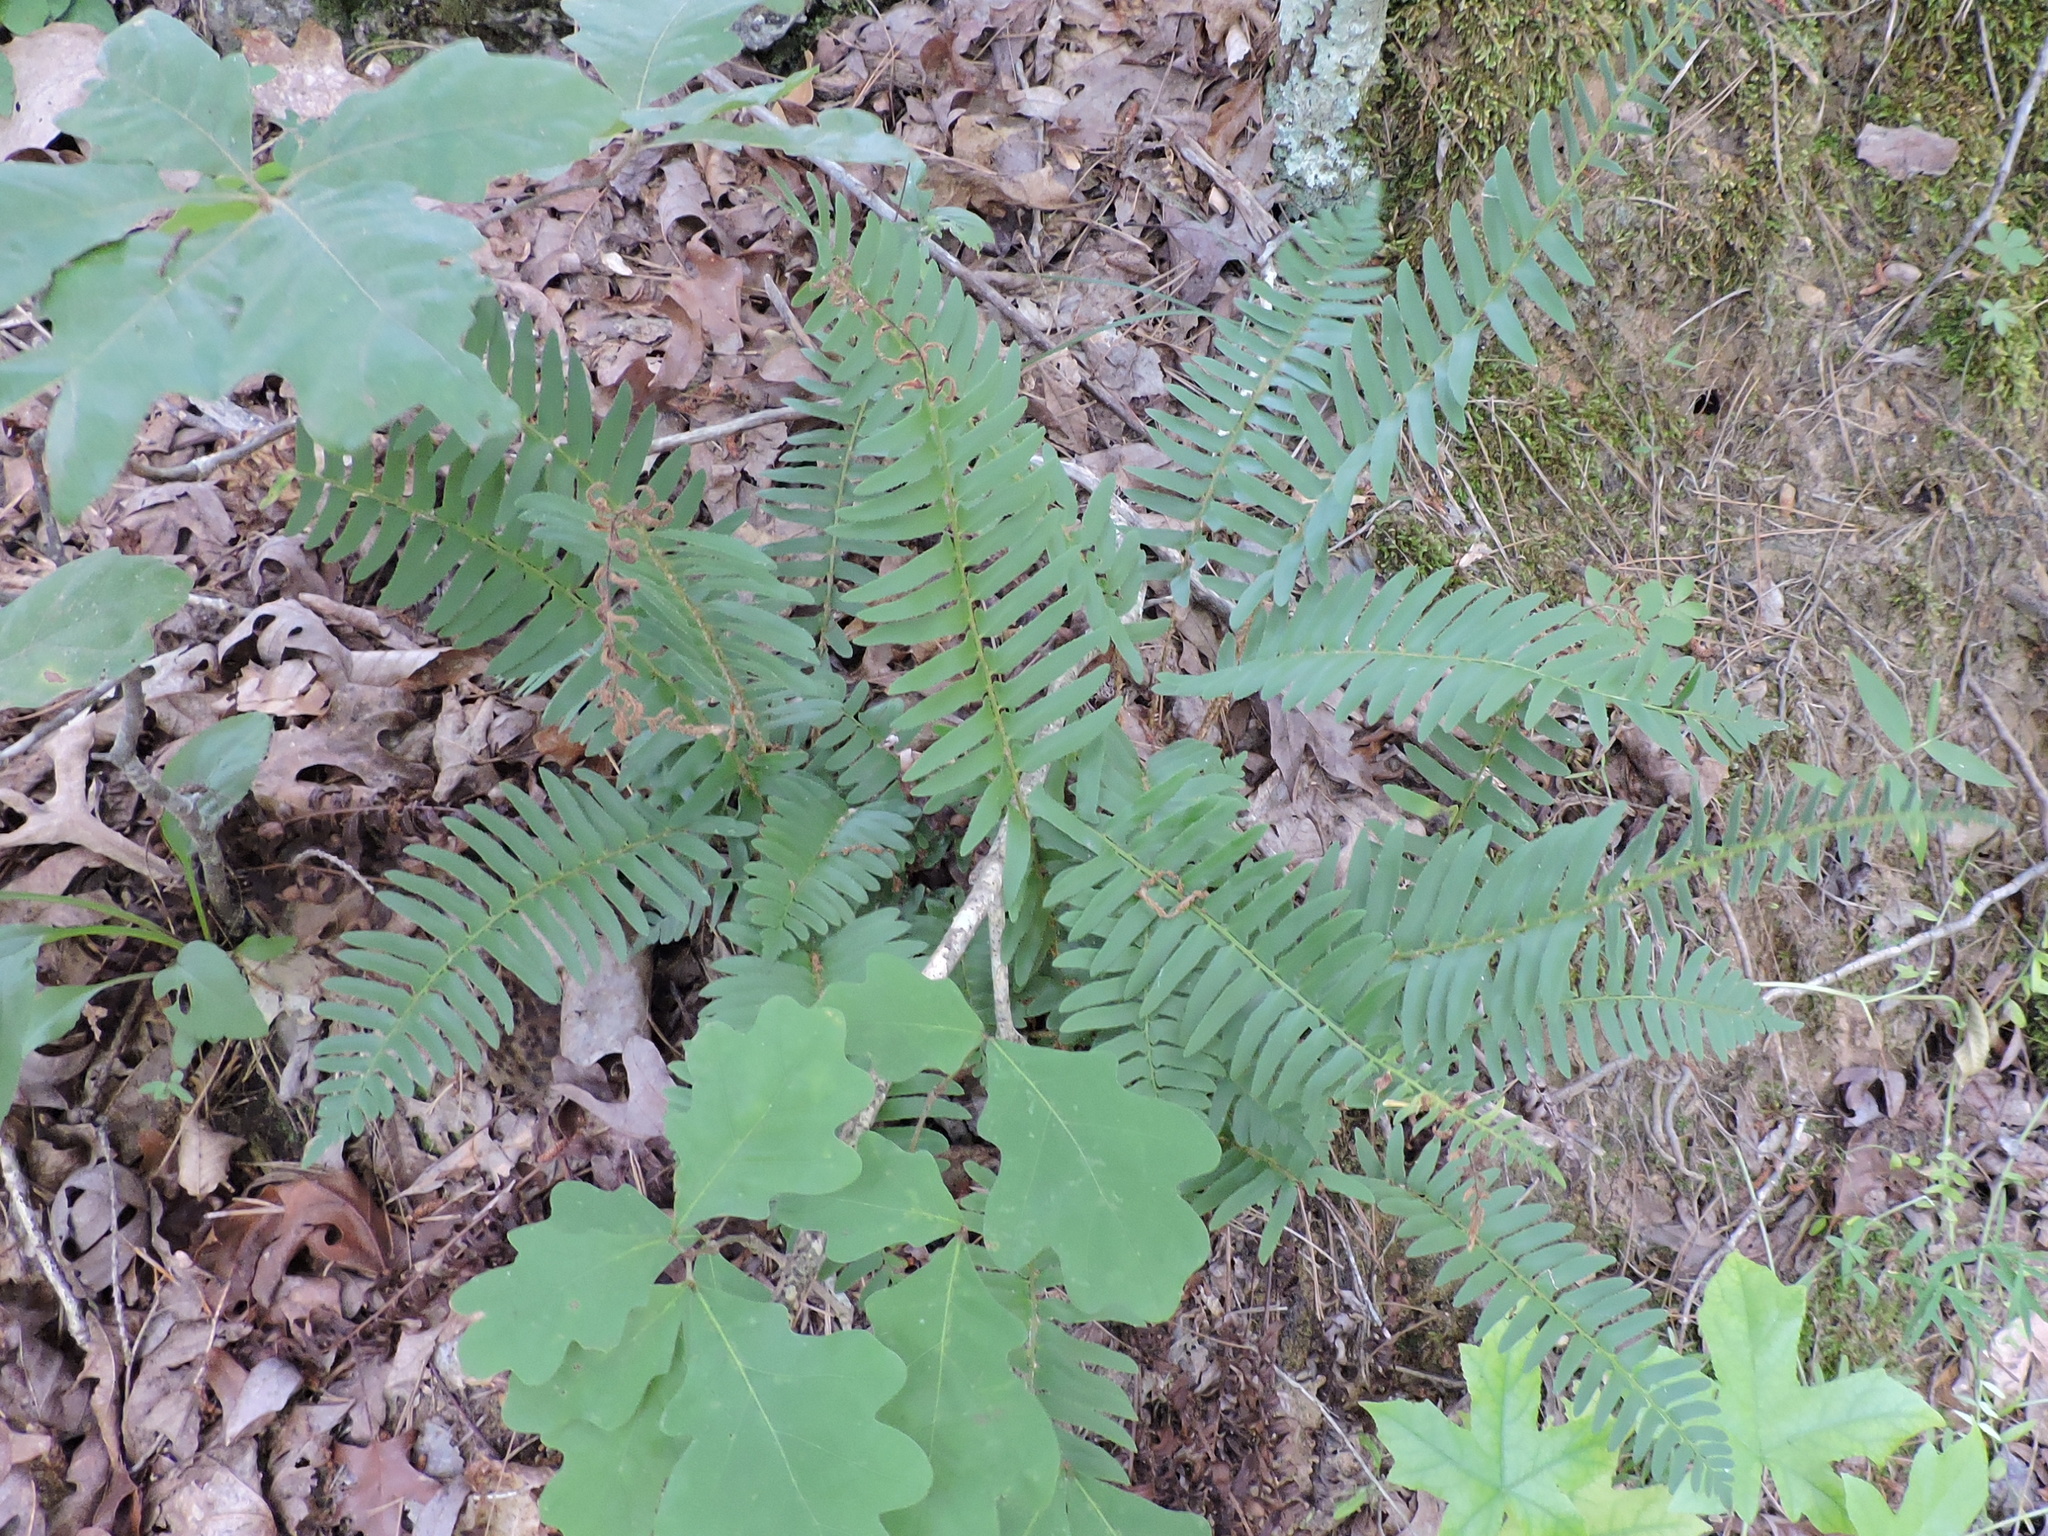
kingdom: Plantae
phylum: Tracheophyta
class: Polypodiopsida
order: Polypodiales
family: Dryopteridaceae
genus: Polystichum
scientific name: Polystichum acrostichoides
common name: Christmas fern
